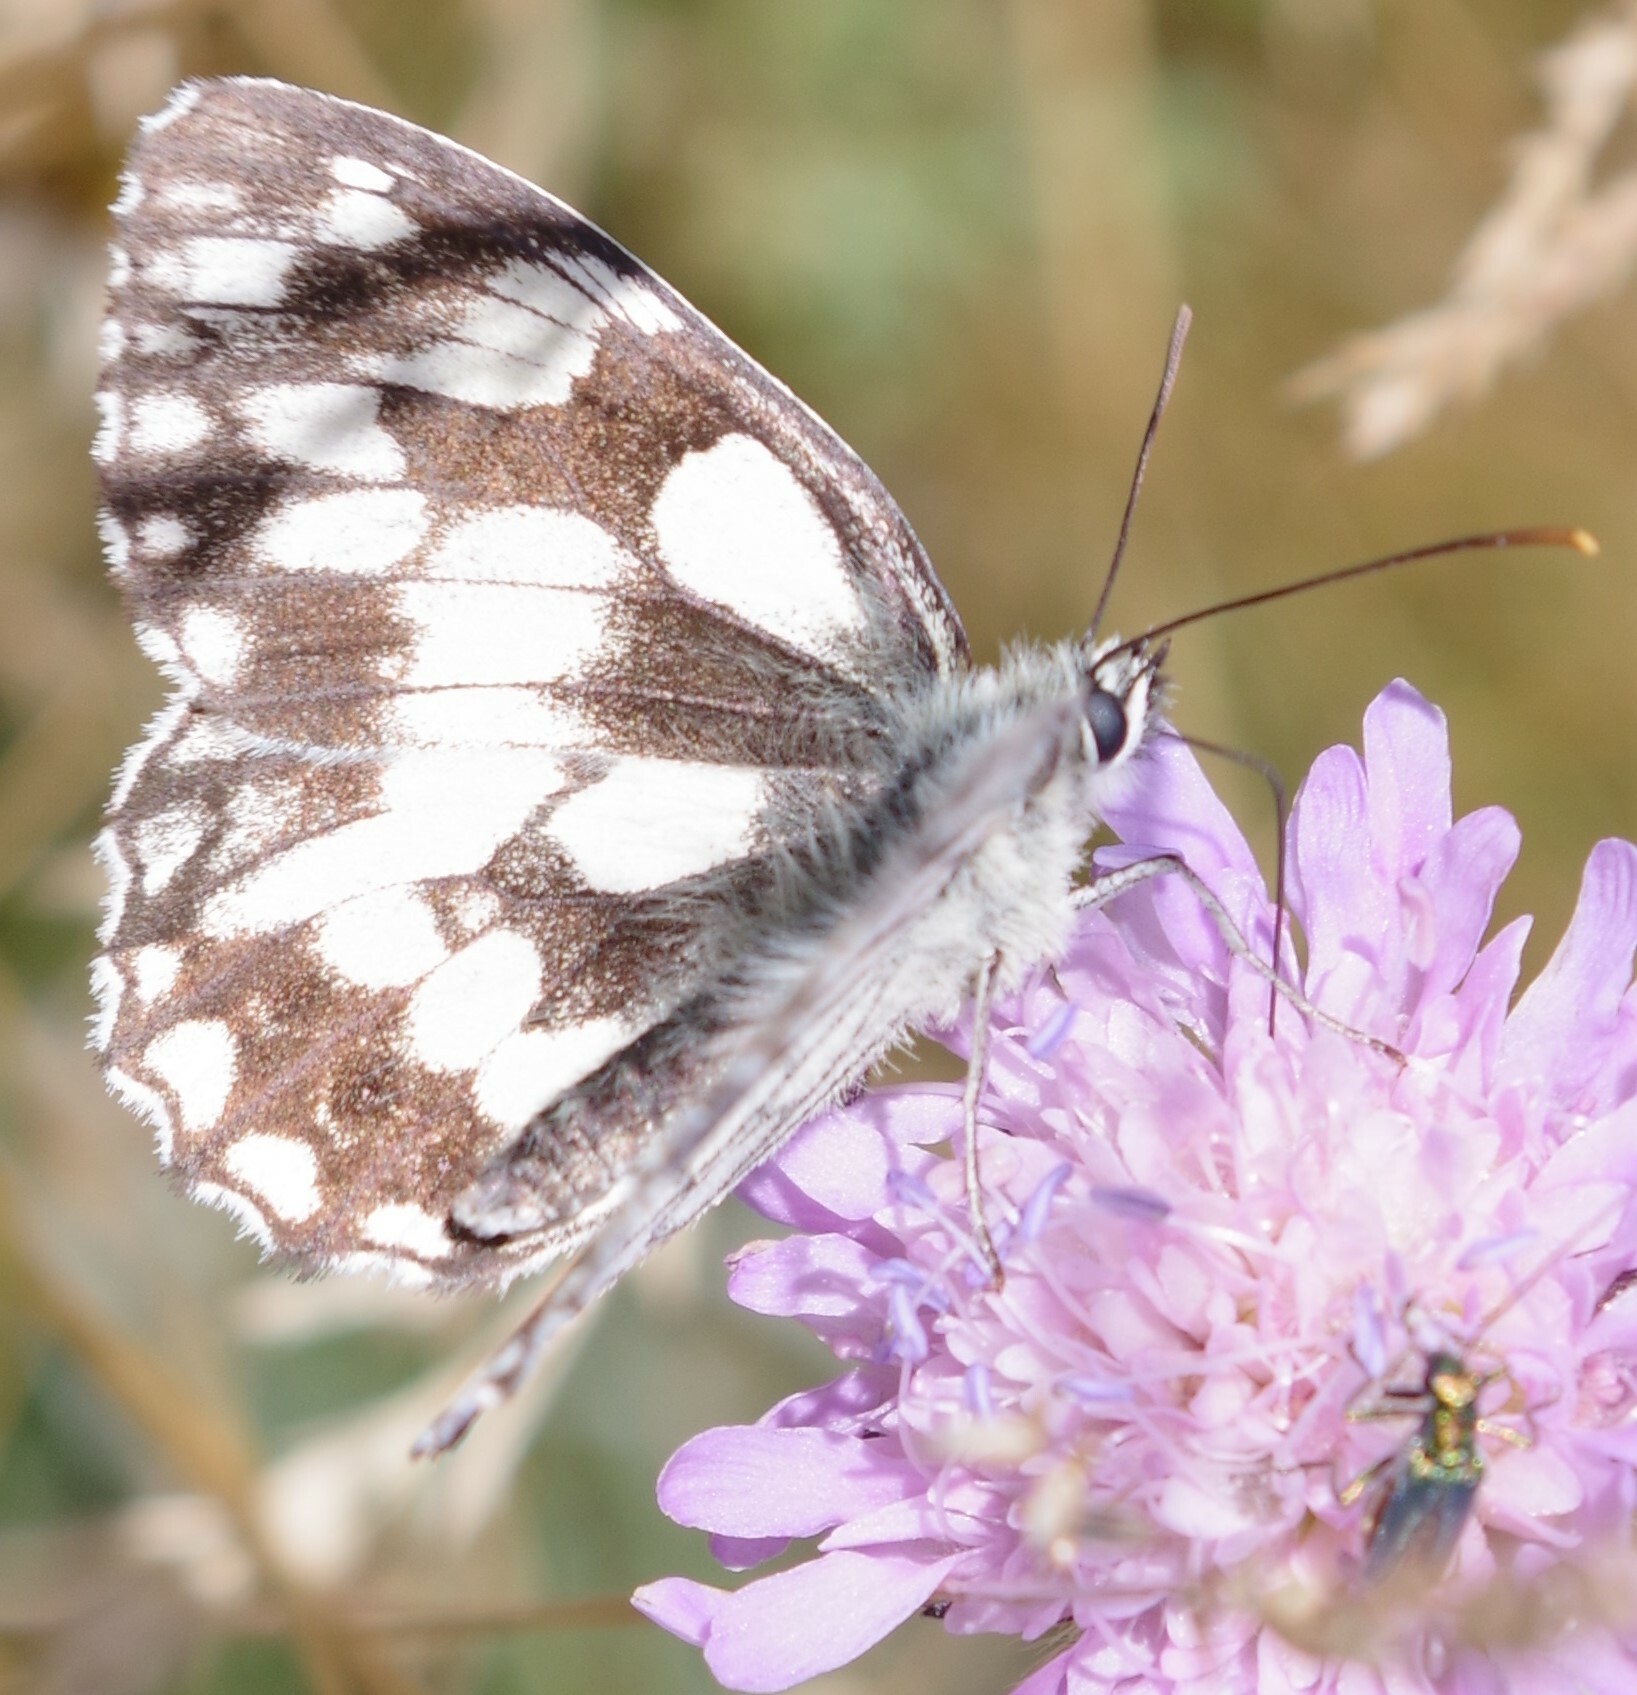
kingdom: Animalia
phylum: Arthropoda
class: Insecta
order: Lepidoptera
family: Nymphalidae
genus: Melanargia
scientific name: Melanargia galathea
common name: Marbled white
